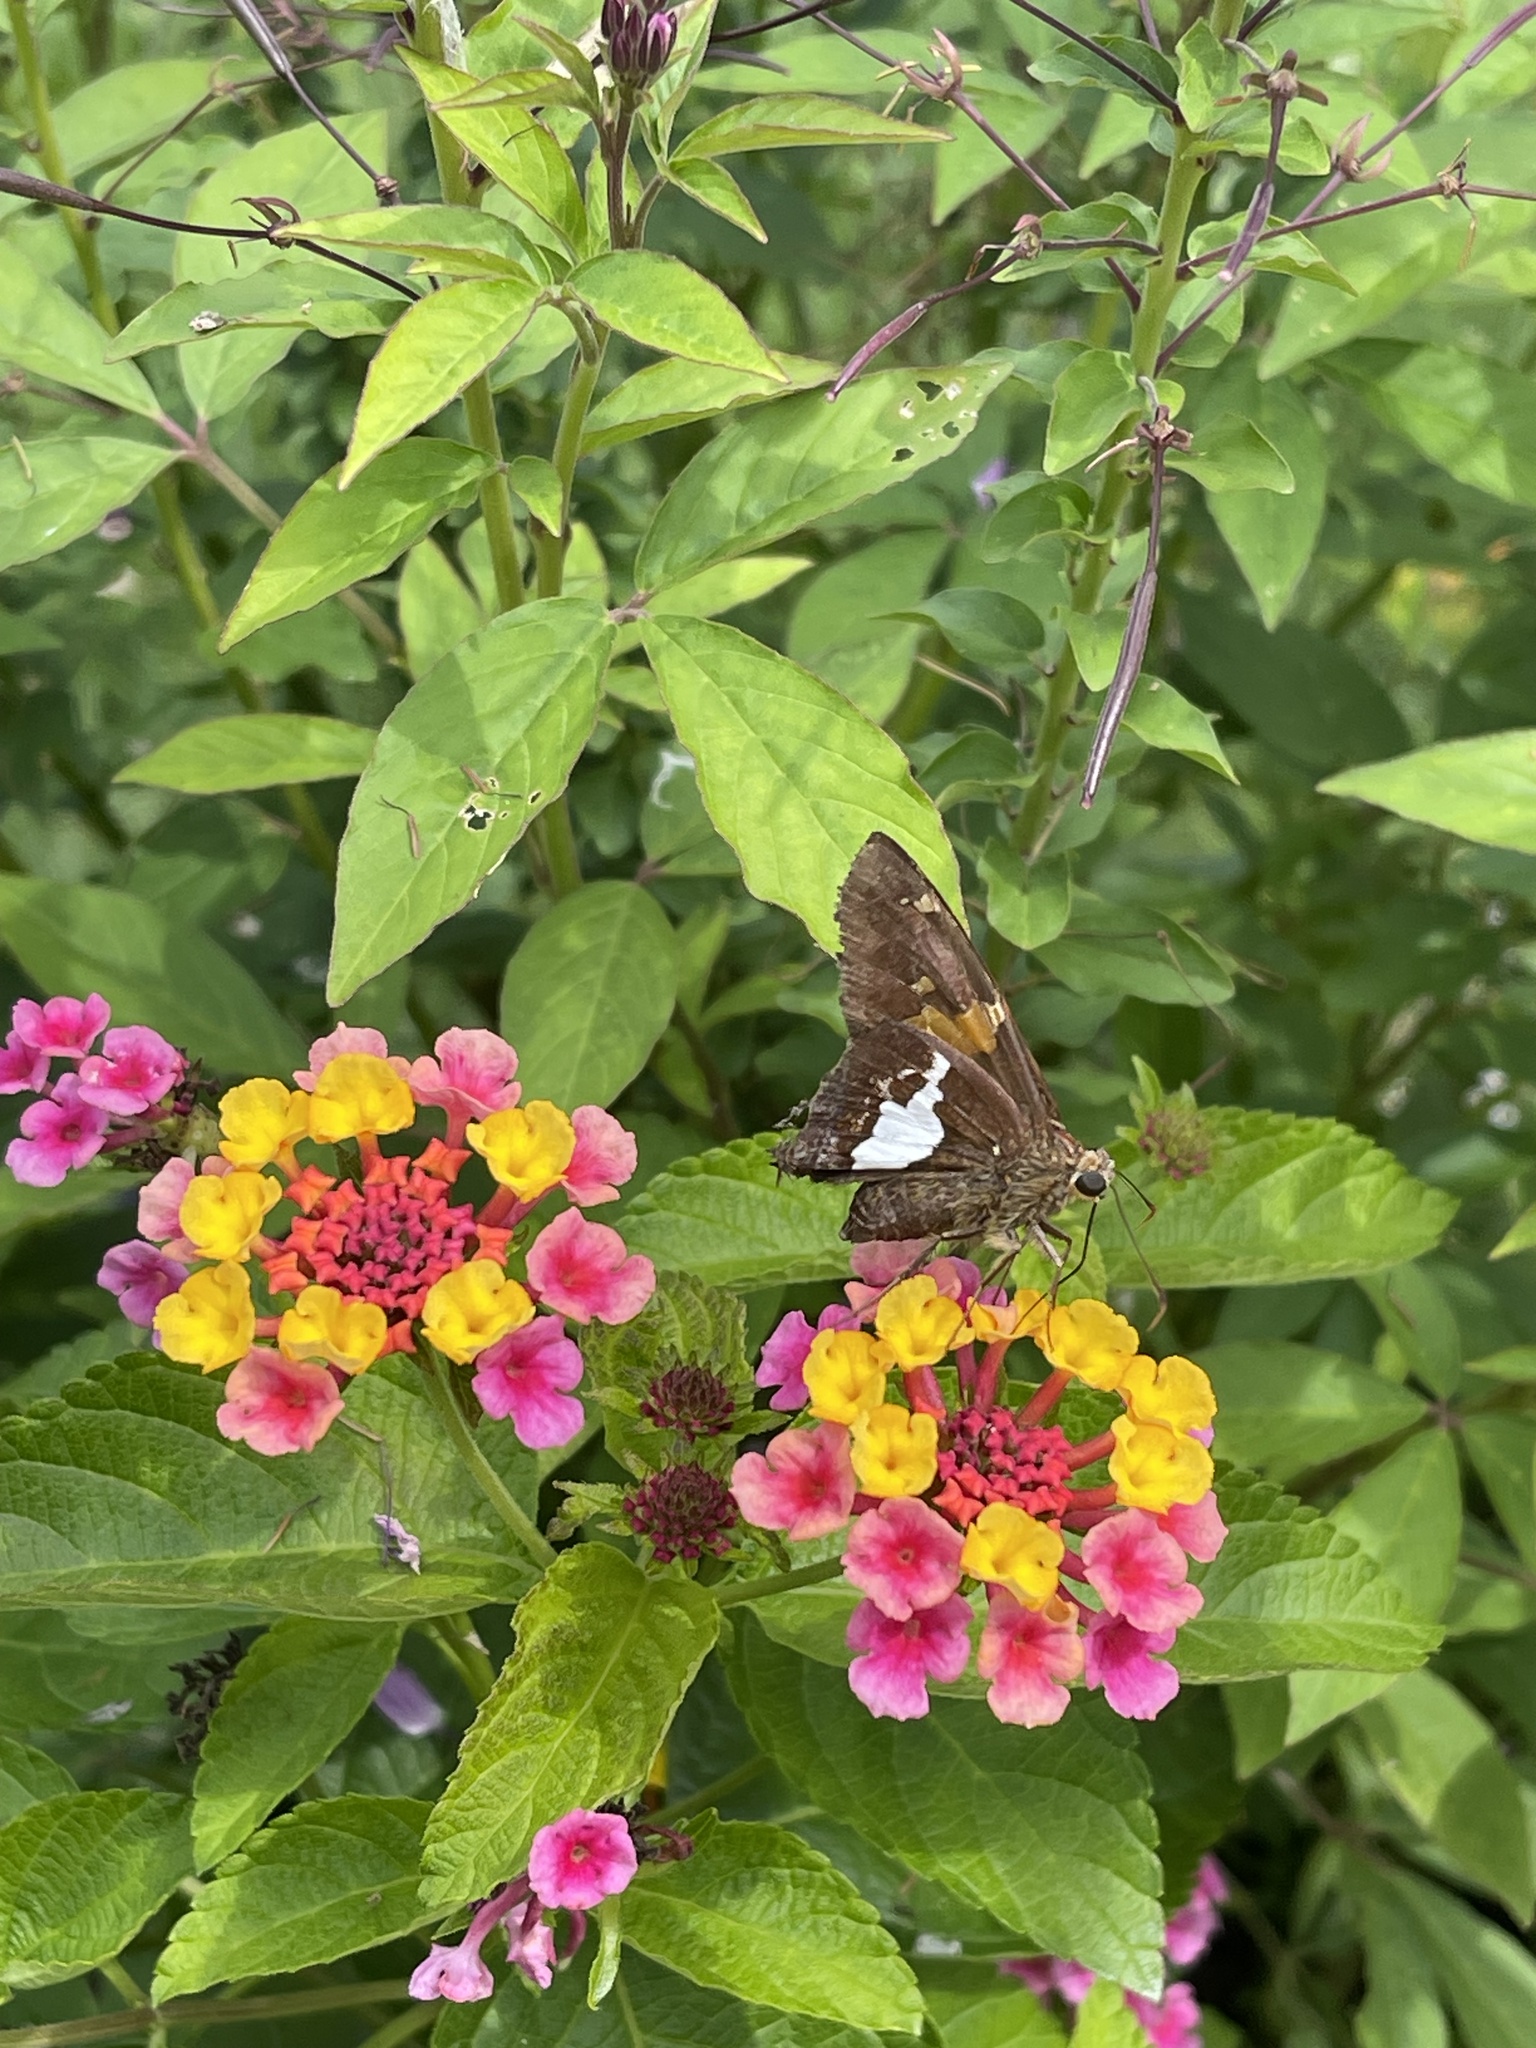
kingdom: Animalia
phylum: Arthropoda
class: Insecta
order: Lepidoptera
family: Hesperiidae
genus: Epargyreus
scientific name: Epargyreus clarus
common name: Silver-spotted skipper
